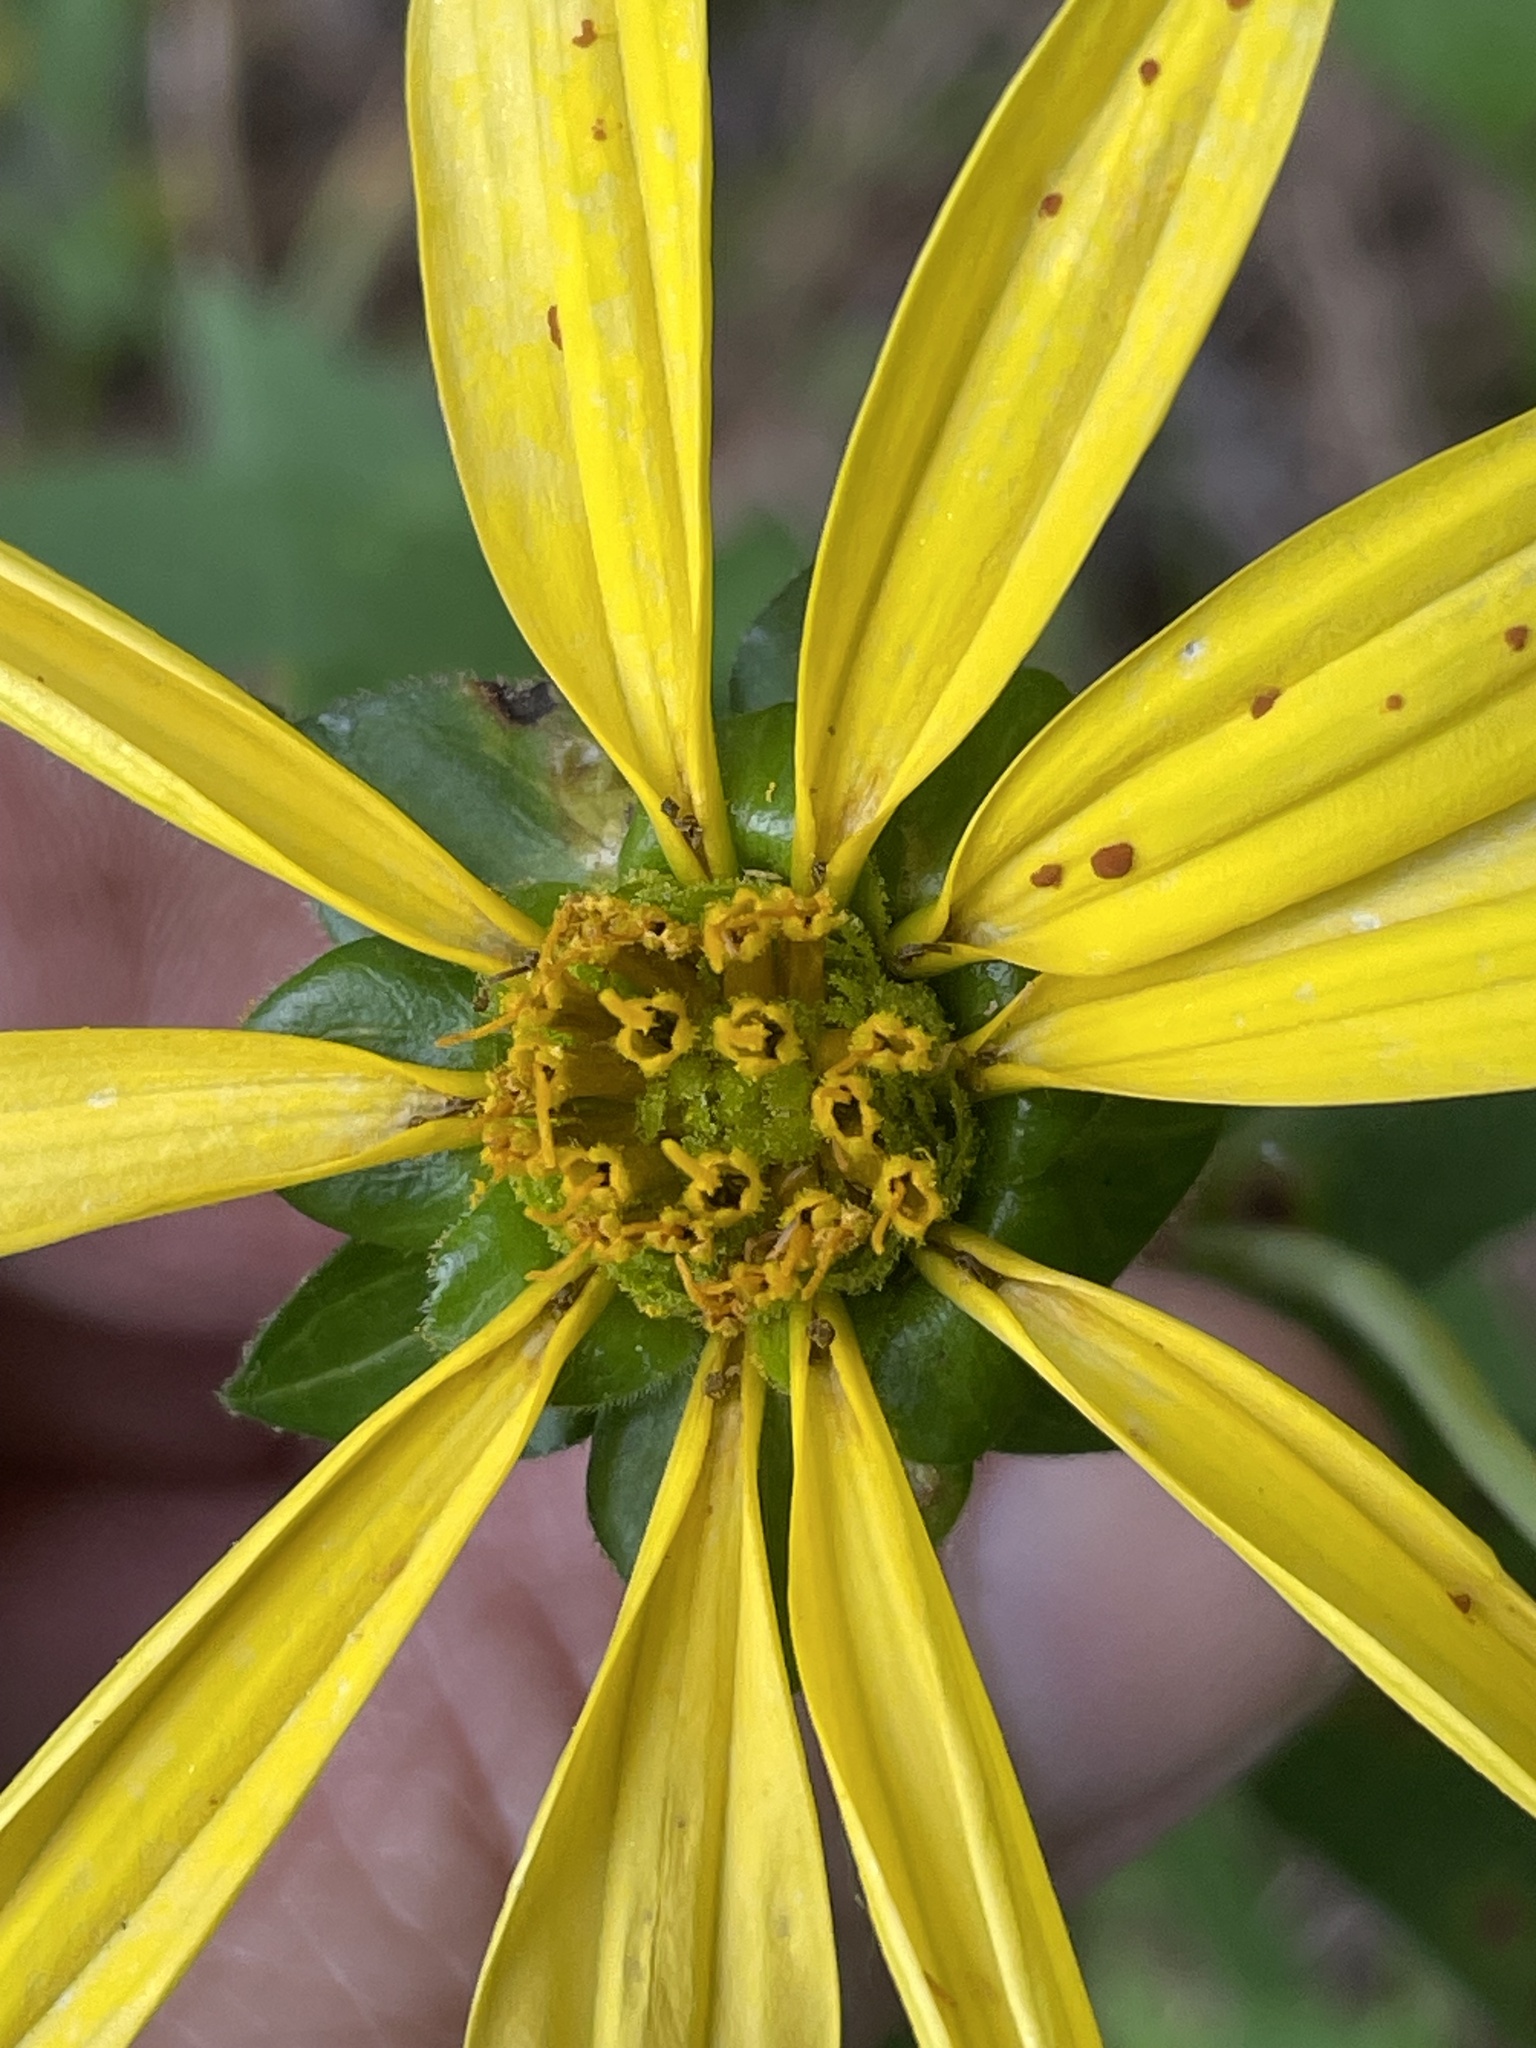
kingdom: Plantae
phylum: Tracheophyta
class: Magnoliopsida
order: Asterales
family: Asteraceae
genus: Silphium
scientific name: Silphium asteriscus
